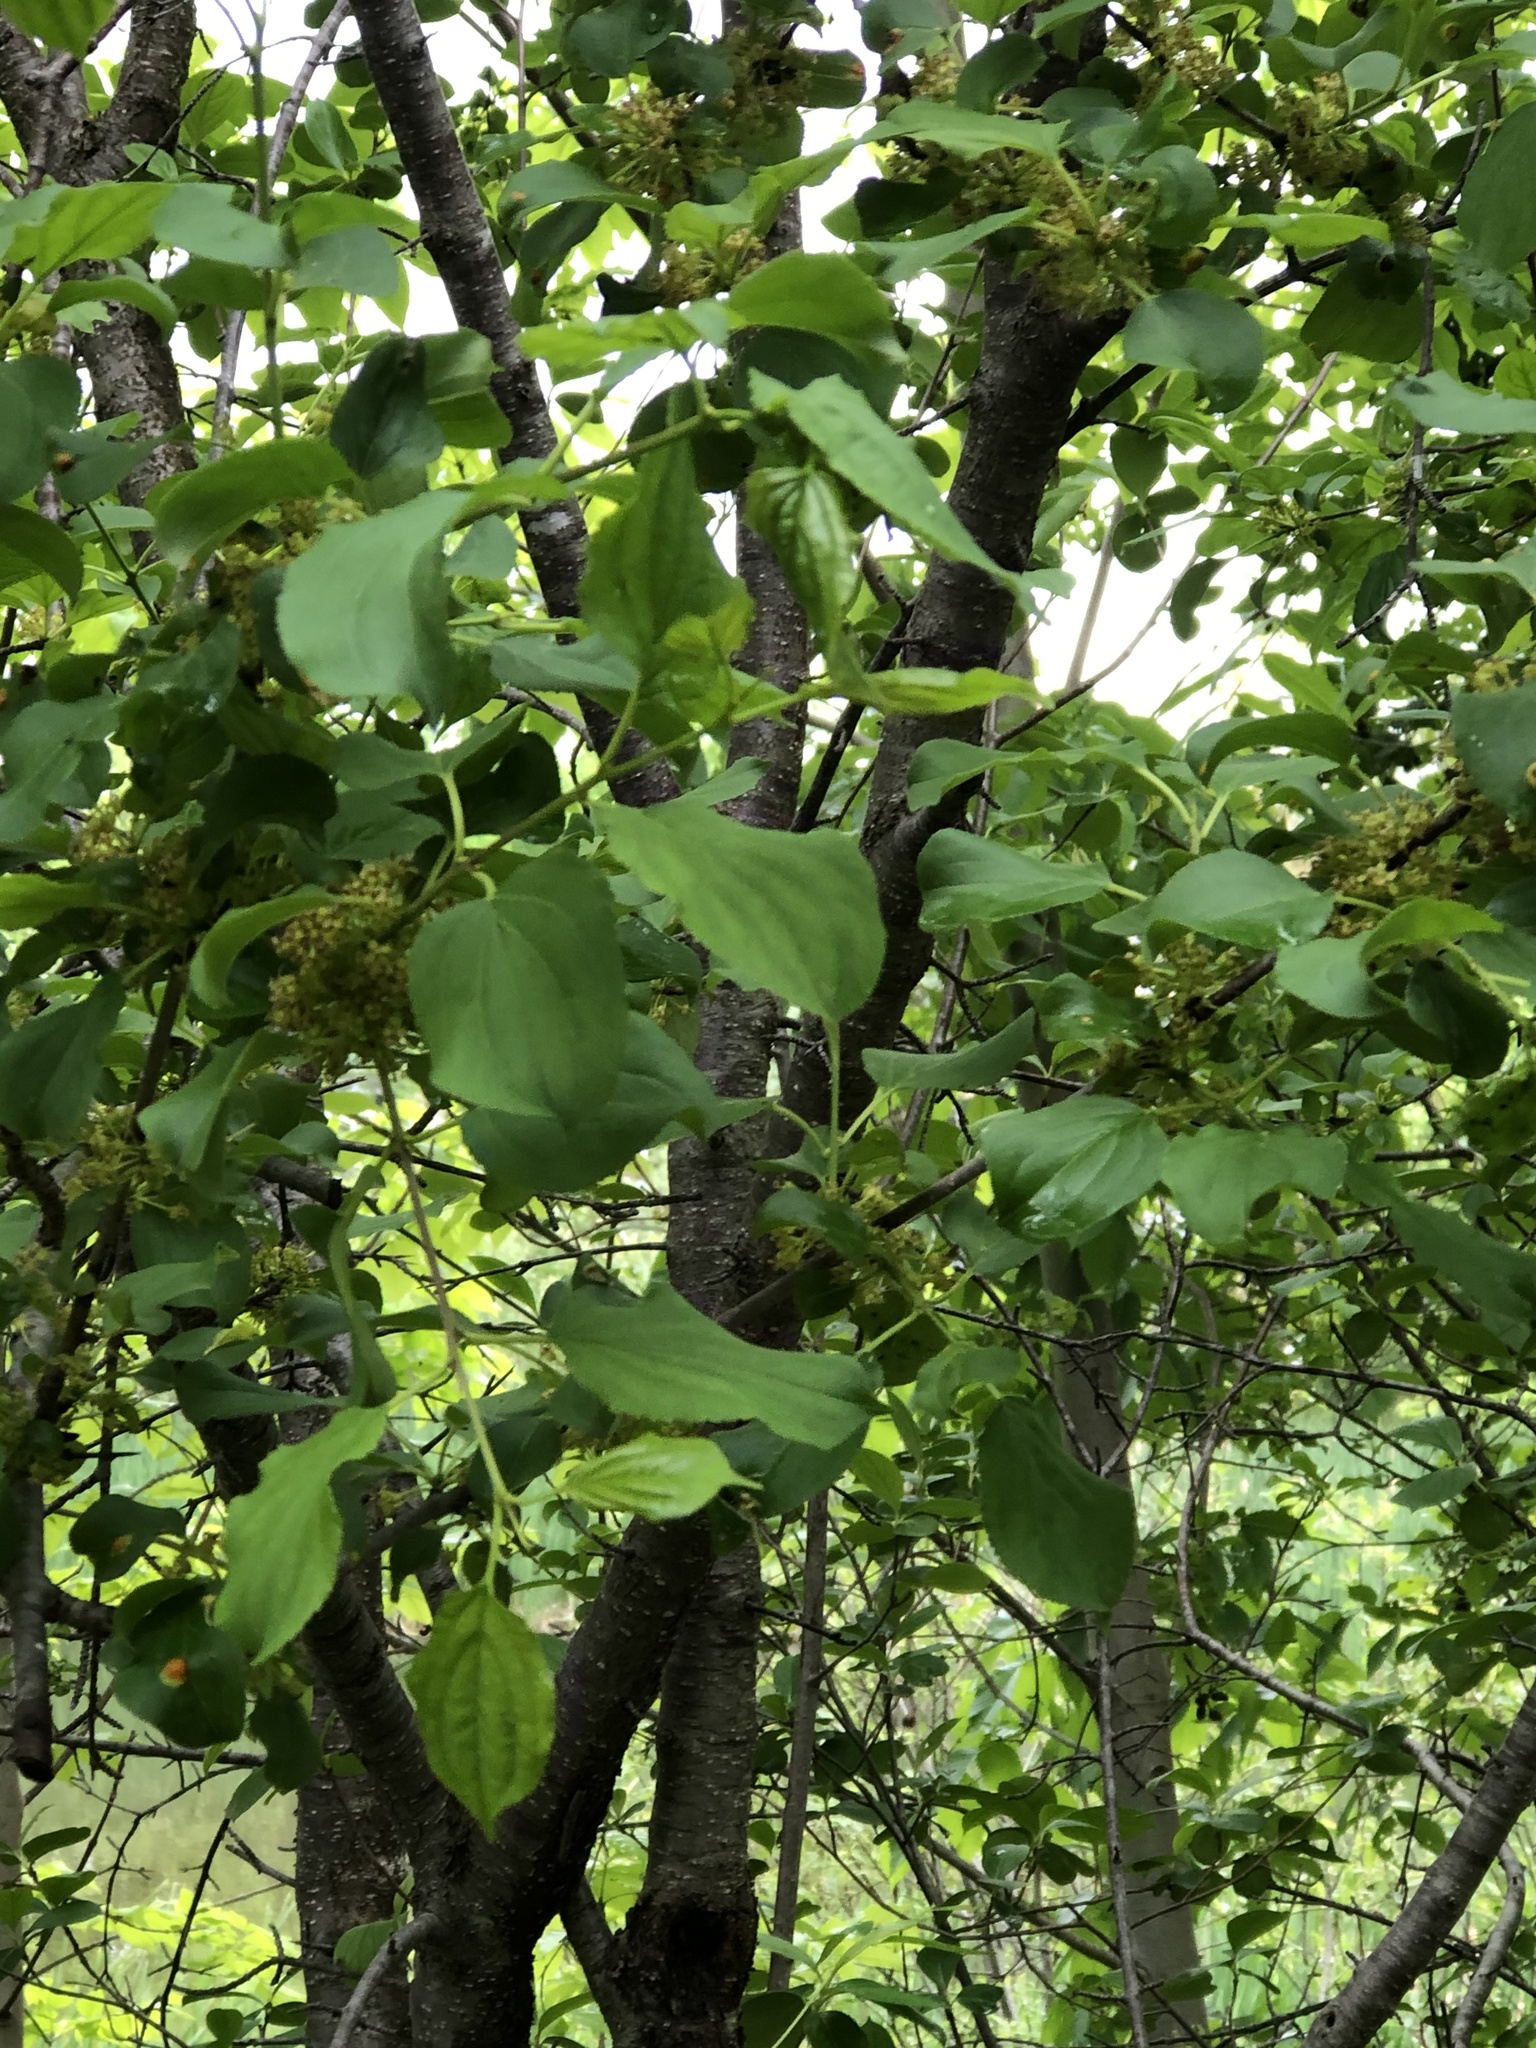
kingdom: Plantae
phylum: Tracheophyta
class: Magnoliopsida
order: Rosales
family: Rhamnaceae
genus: Rhamnus
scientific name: Rhamnus cathartica
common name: Common buckthorn
